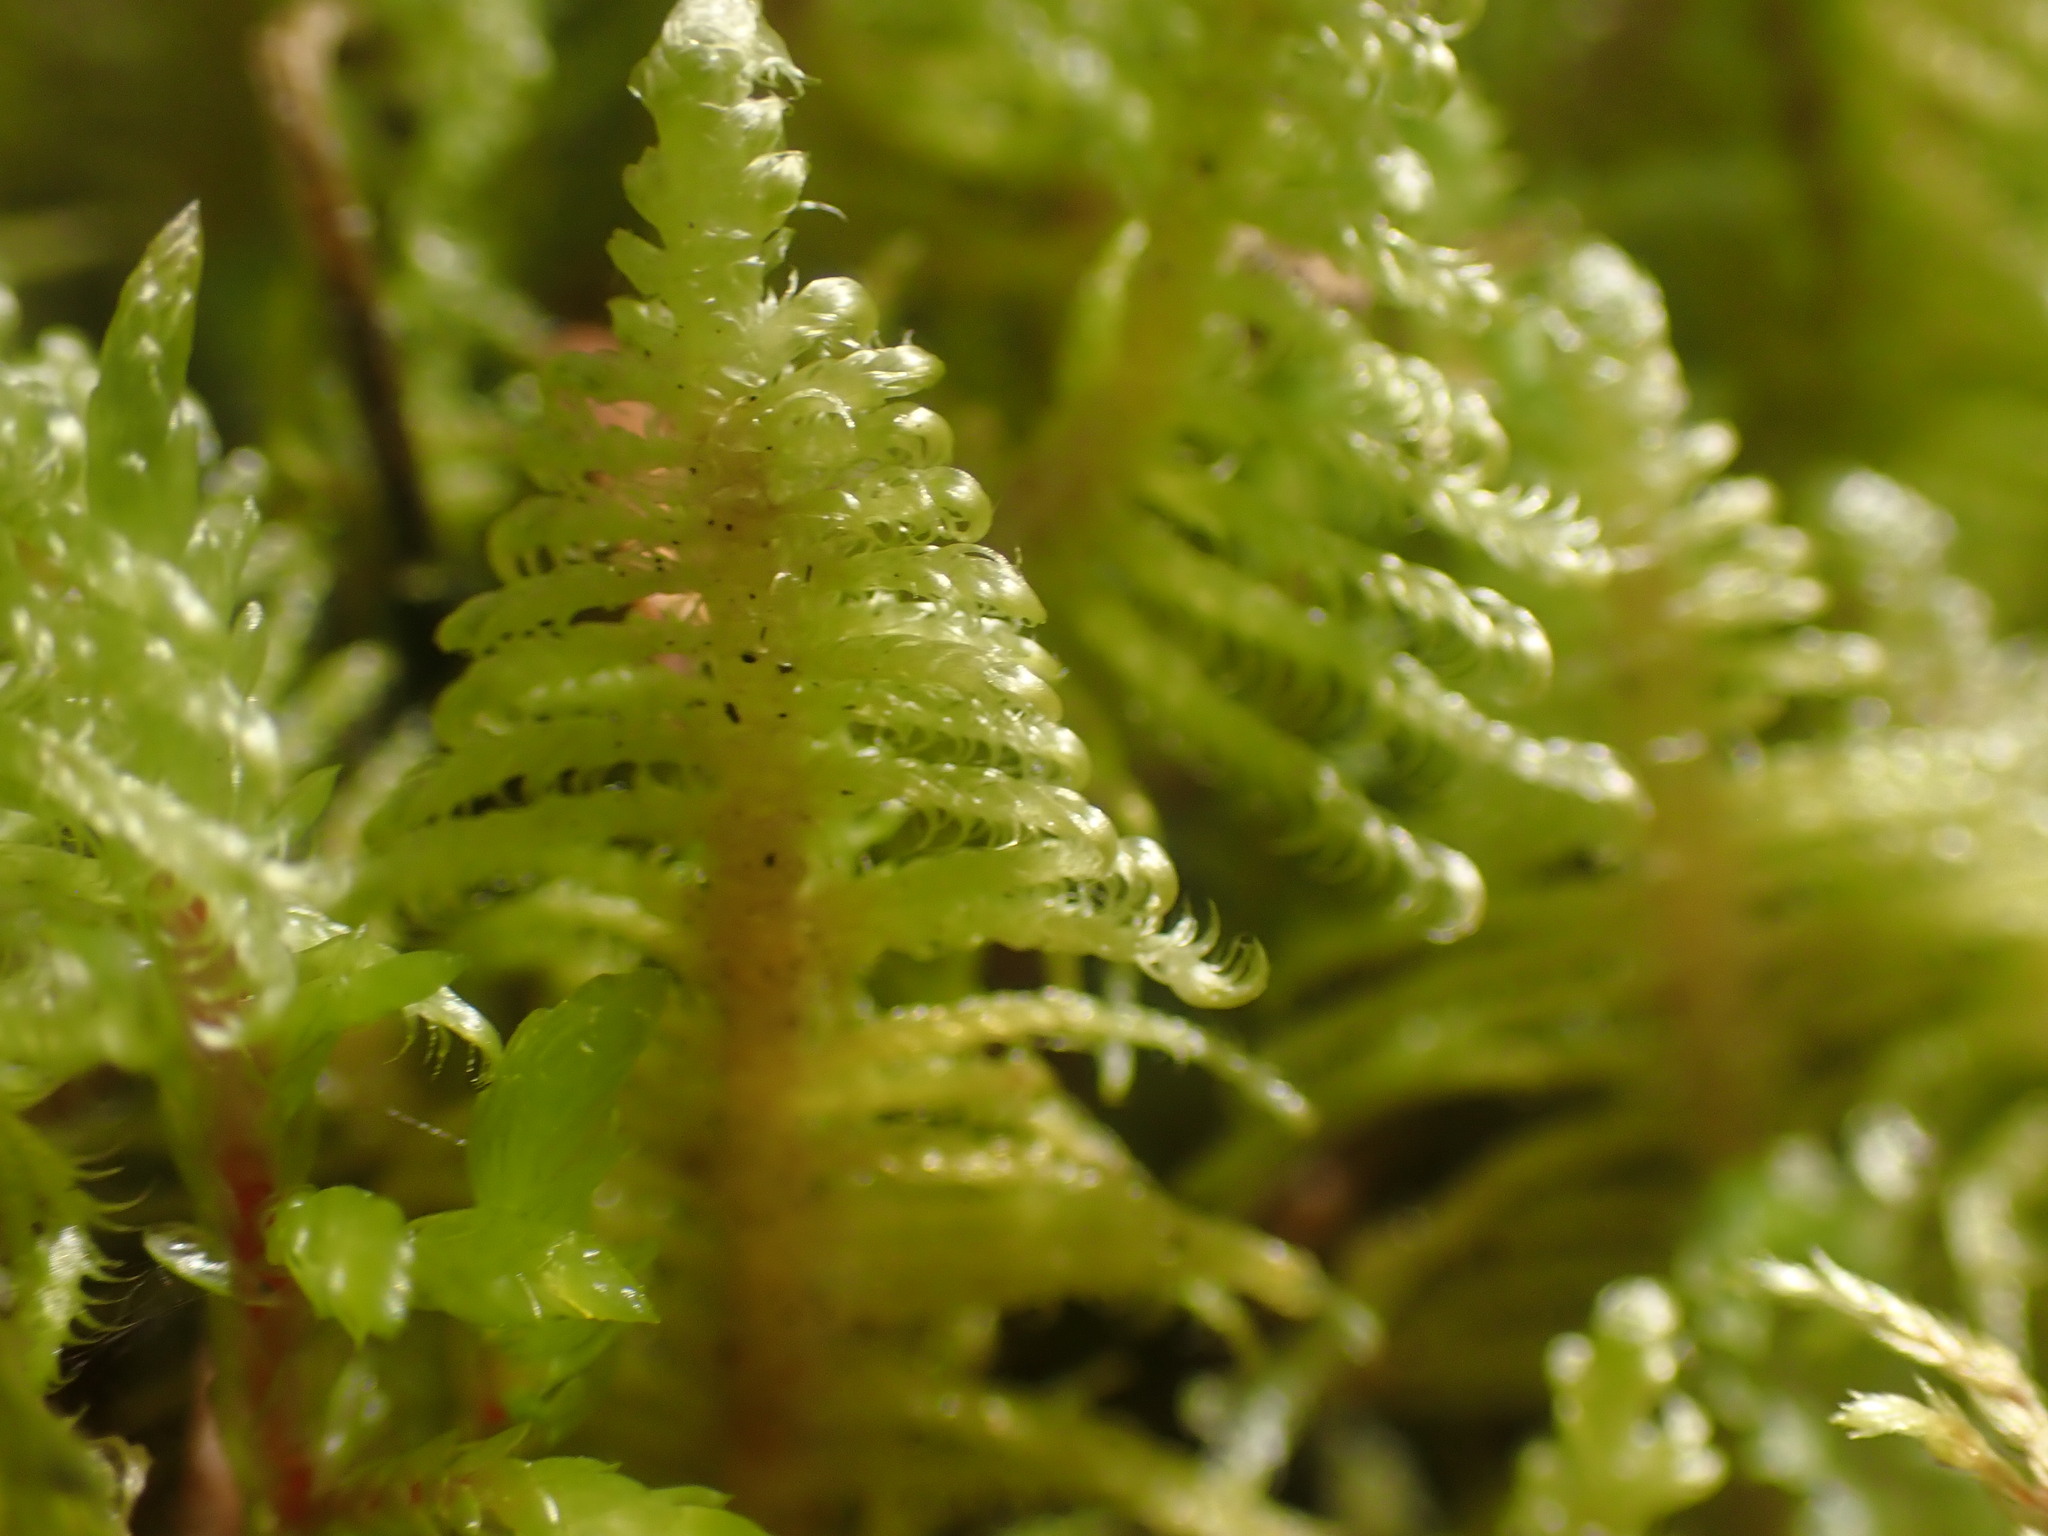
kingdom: Plantae
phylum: Bryophyta
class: Bryopsida
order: Hypnales
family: Pylaisiaceae
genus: Ptilium
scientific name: Ptilium crista-castrensis
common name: Knight's plume moss
